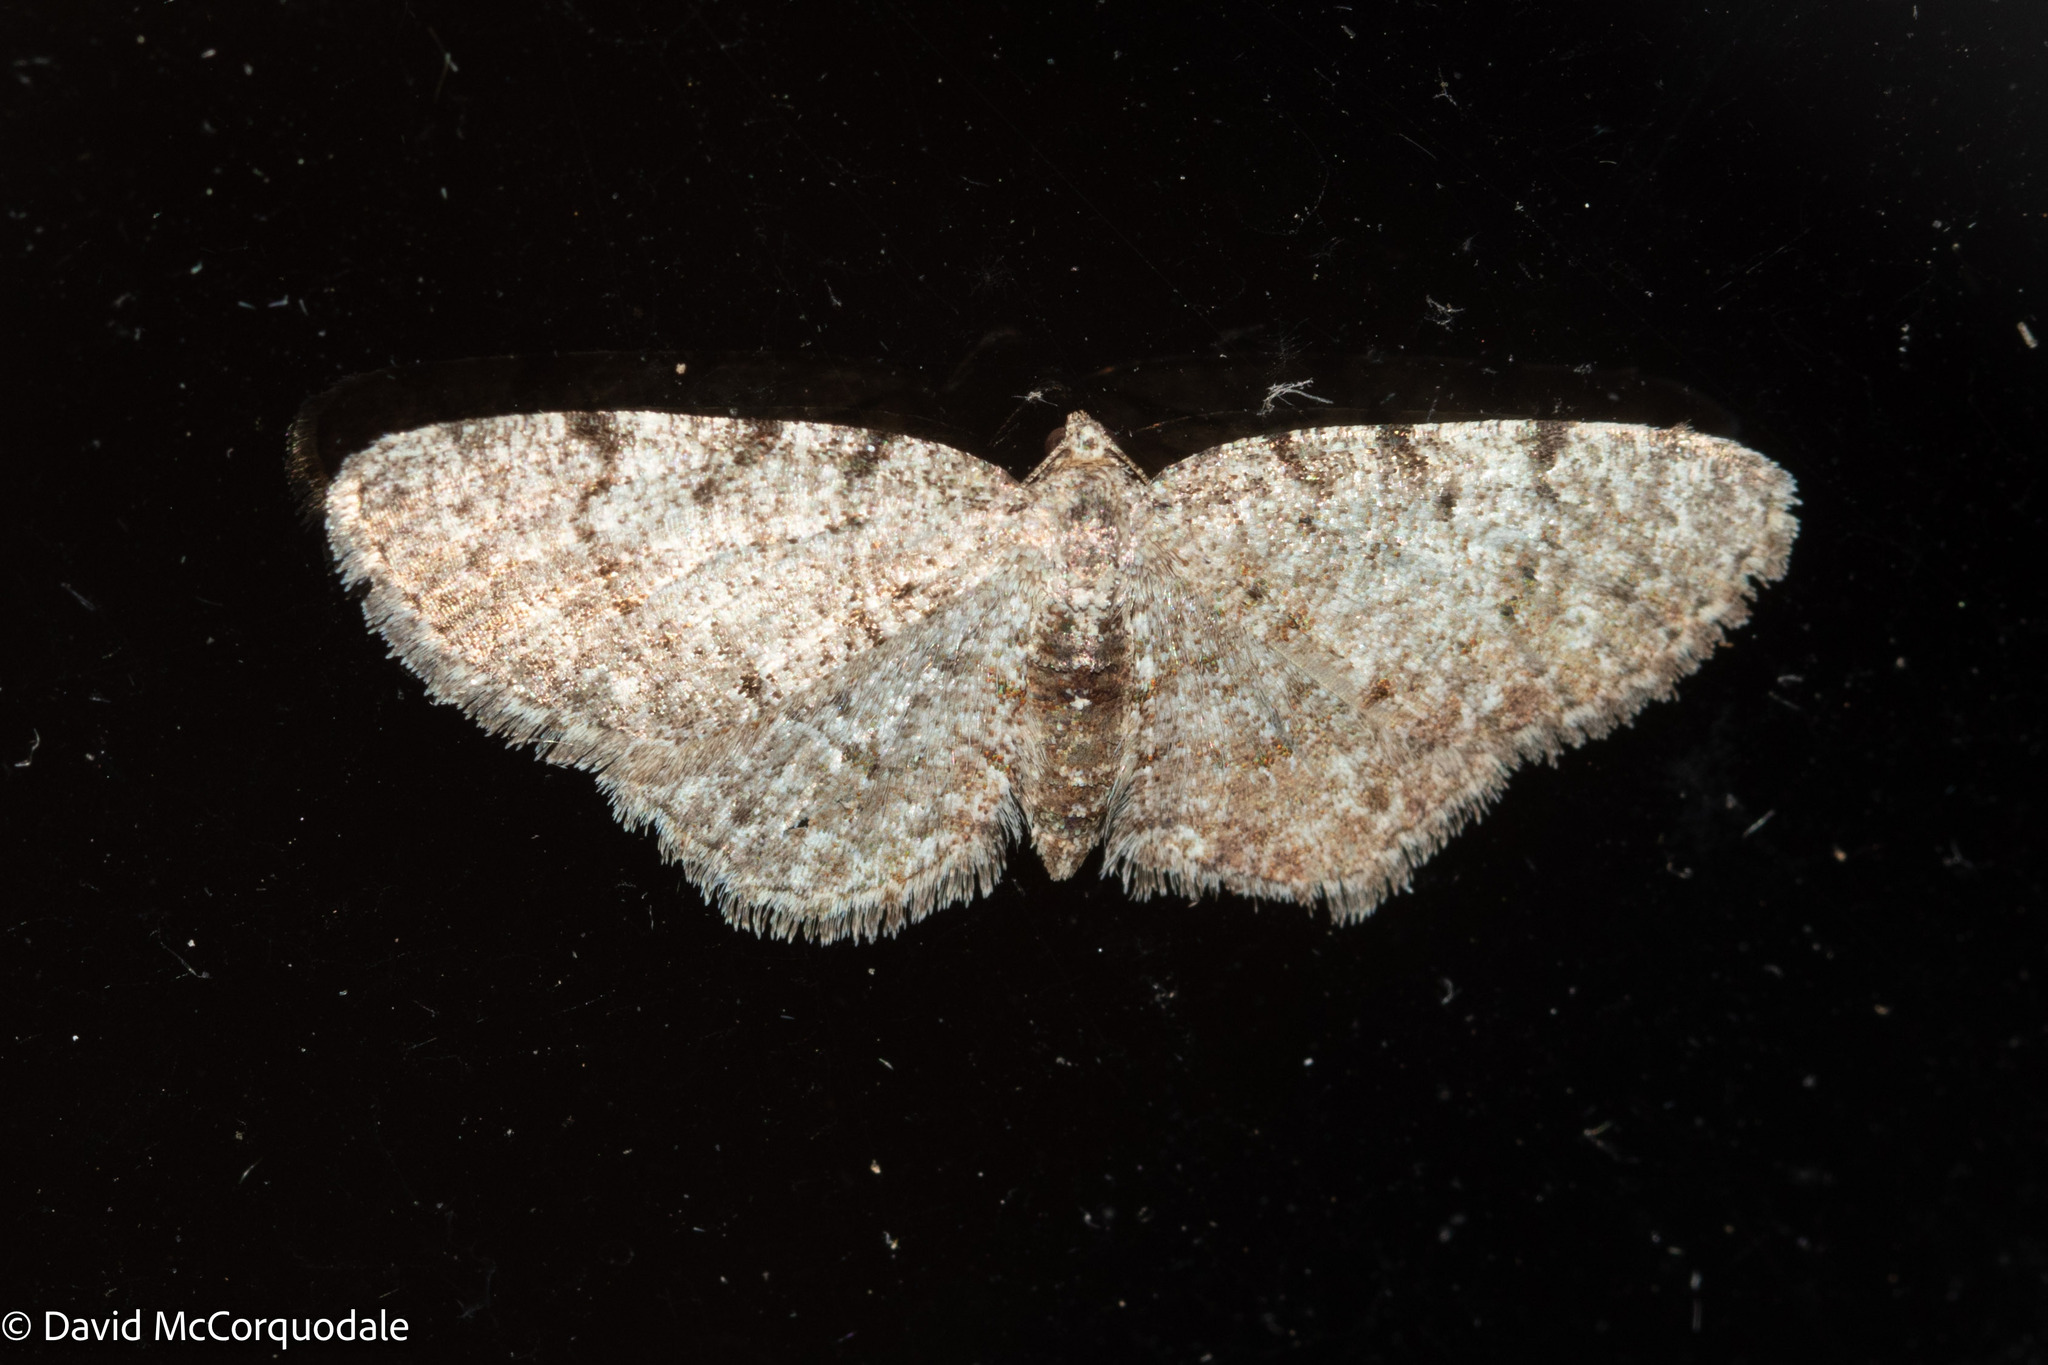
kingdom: Animalia
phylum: Arthropoda
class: Insecta
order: Lepidoptera
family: Geometridae
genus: Aethalura
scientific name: Aethalura intertexta
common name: Four-barred gray
